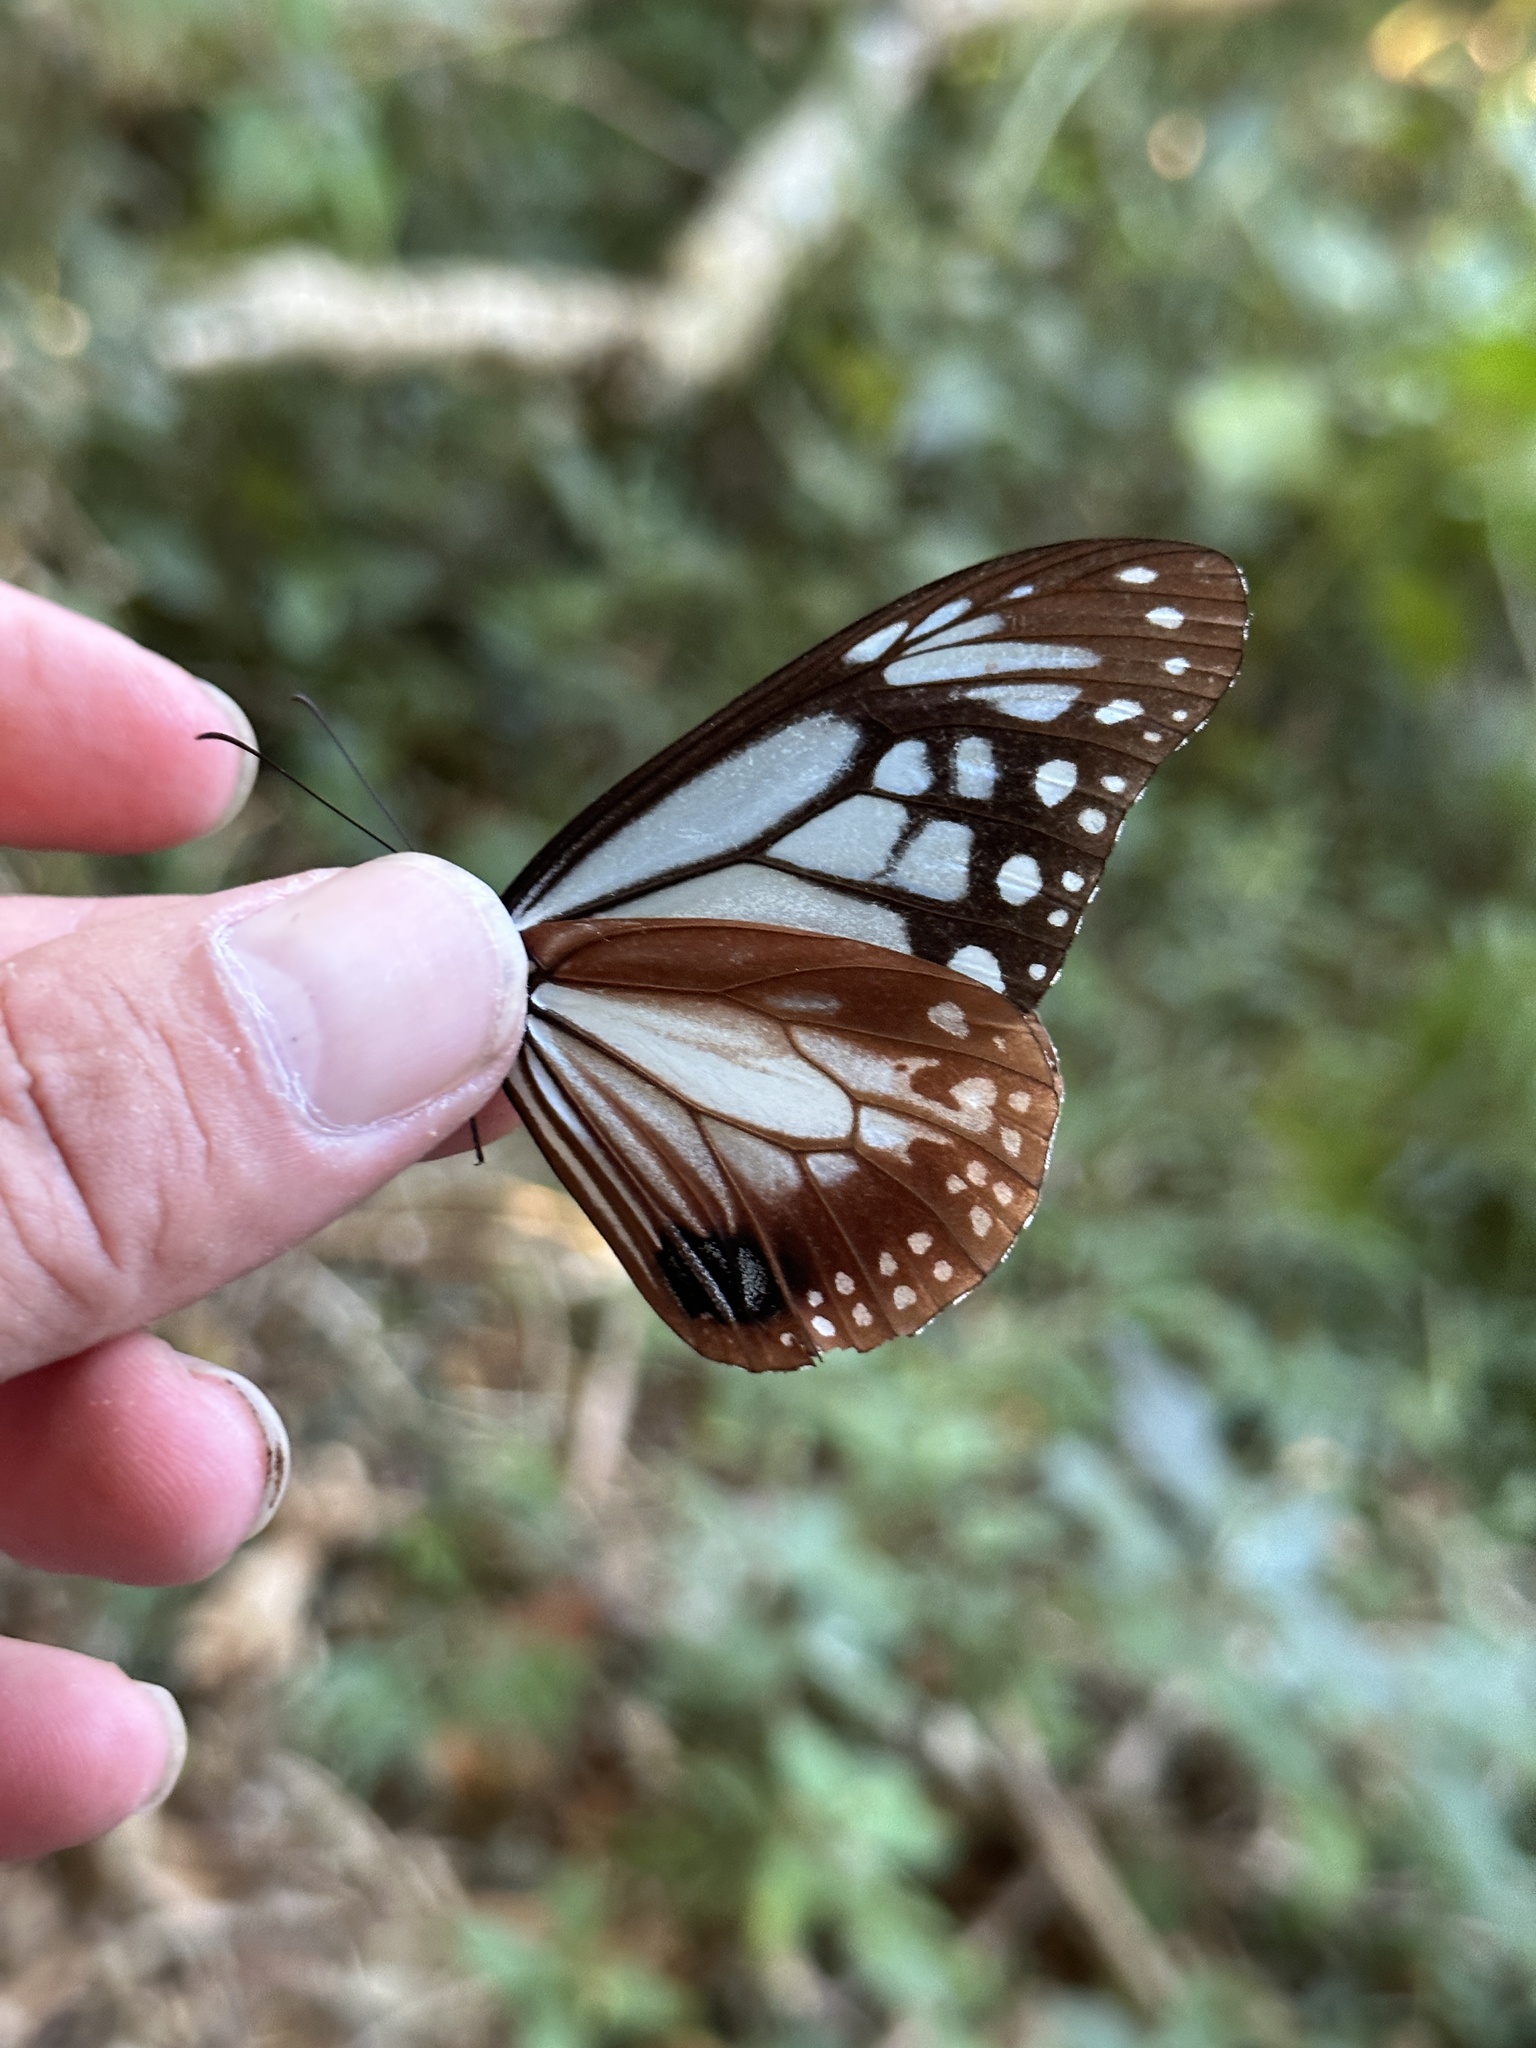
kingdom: Animalia
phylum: Arthropoda
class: Insecta
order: Lepidoptera
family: Nymphalidae
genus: Parantica
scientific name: Parantica sita
